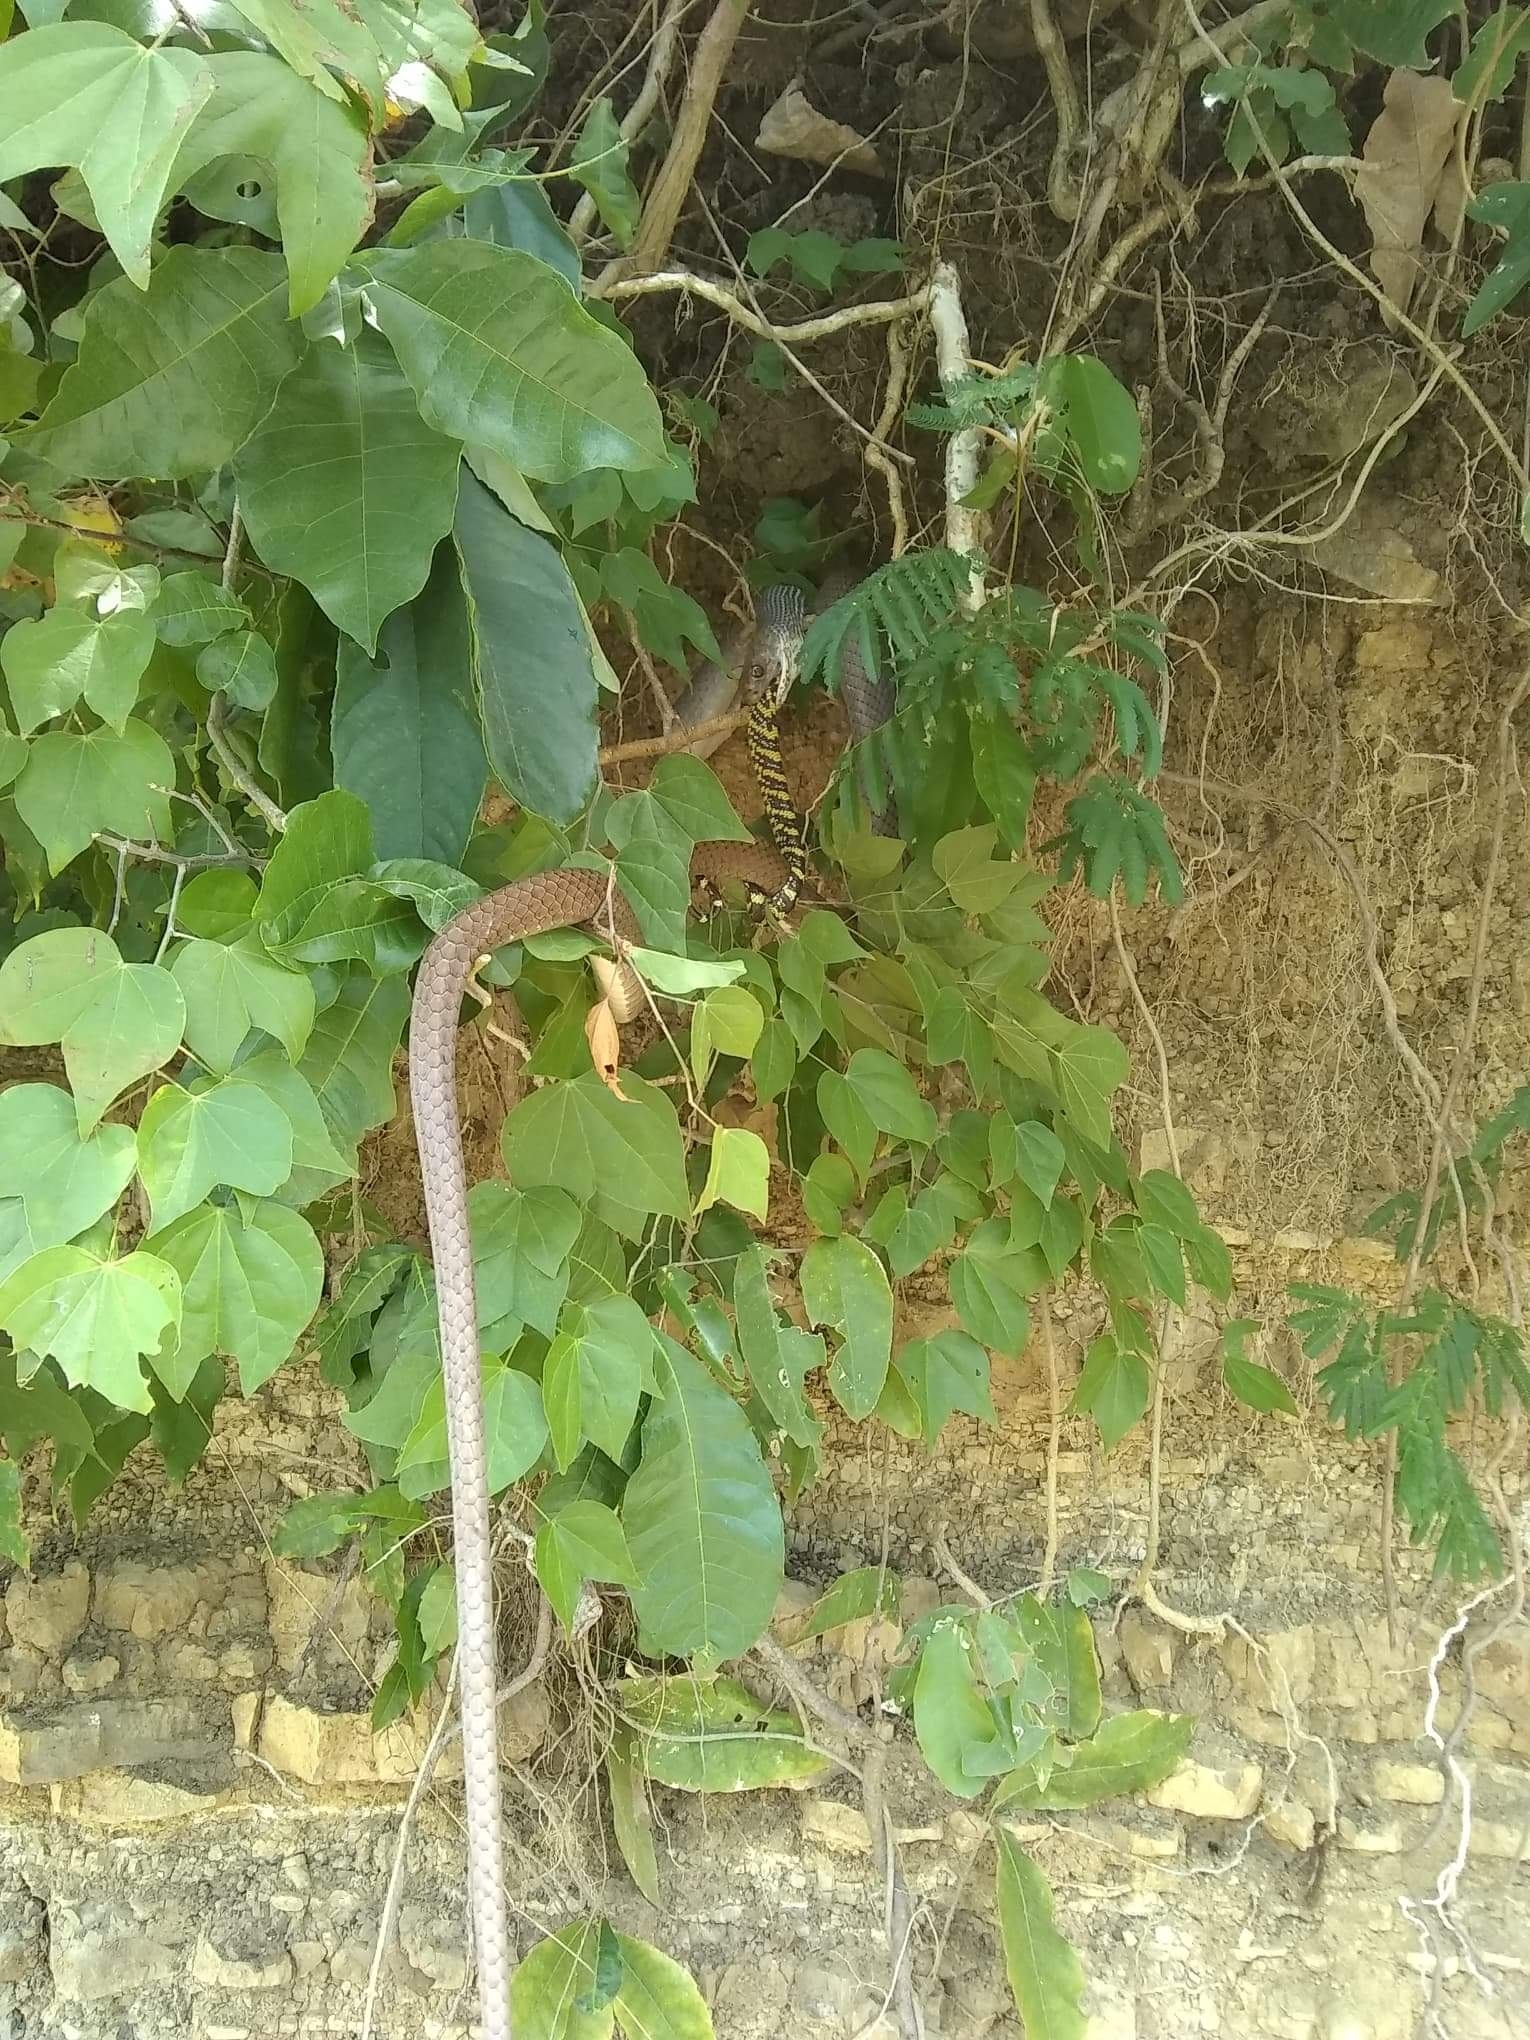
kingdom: Animalia
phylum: Chordata
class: Squamata
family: Colubridae
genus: Masticophis
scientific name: Masticophis mentovarius
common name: Neotropical whip snake
